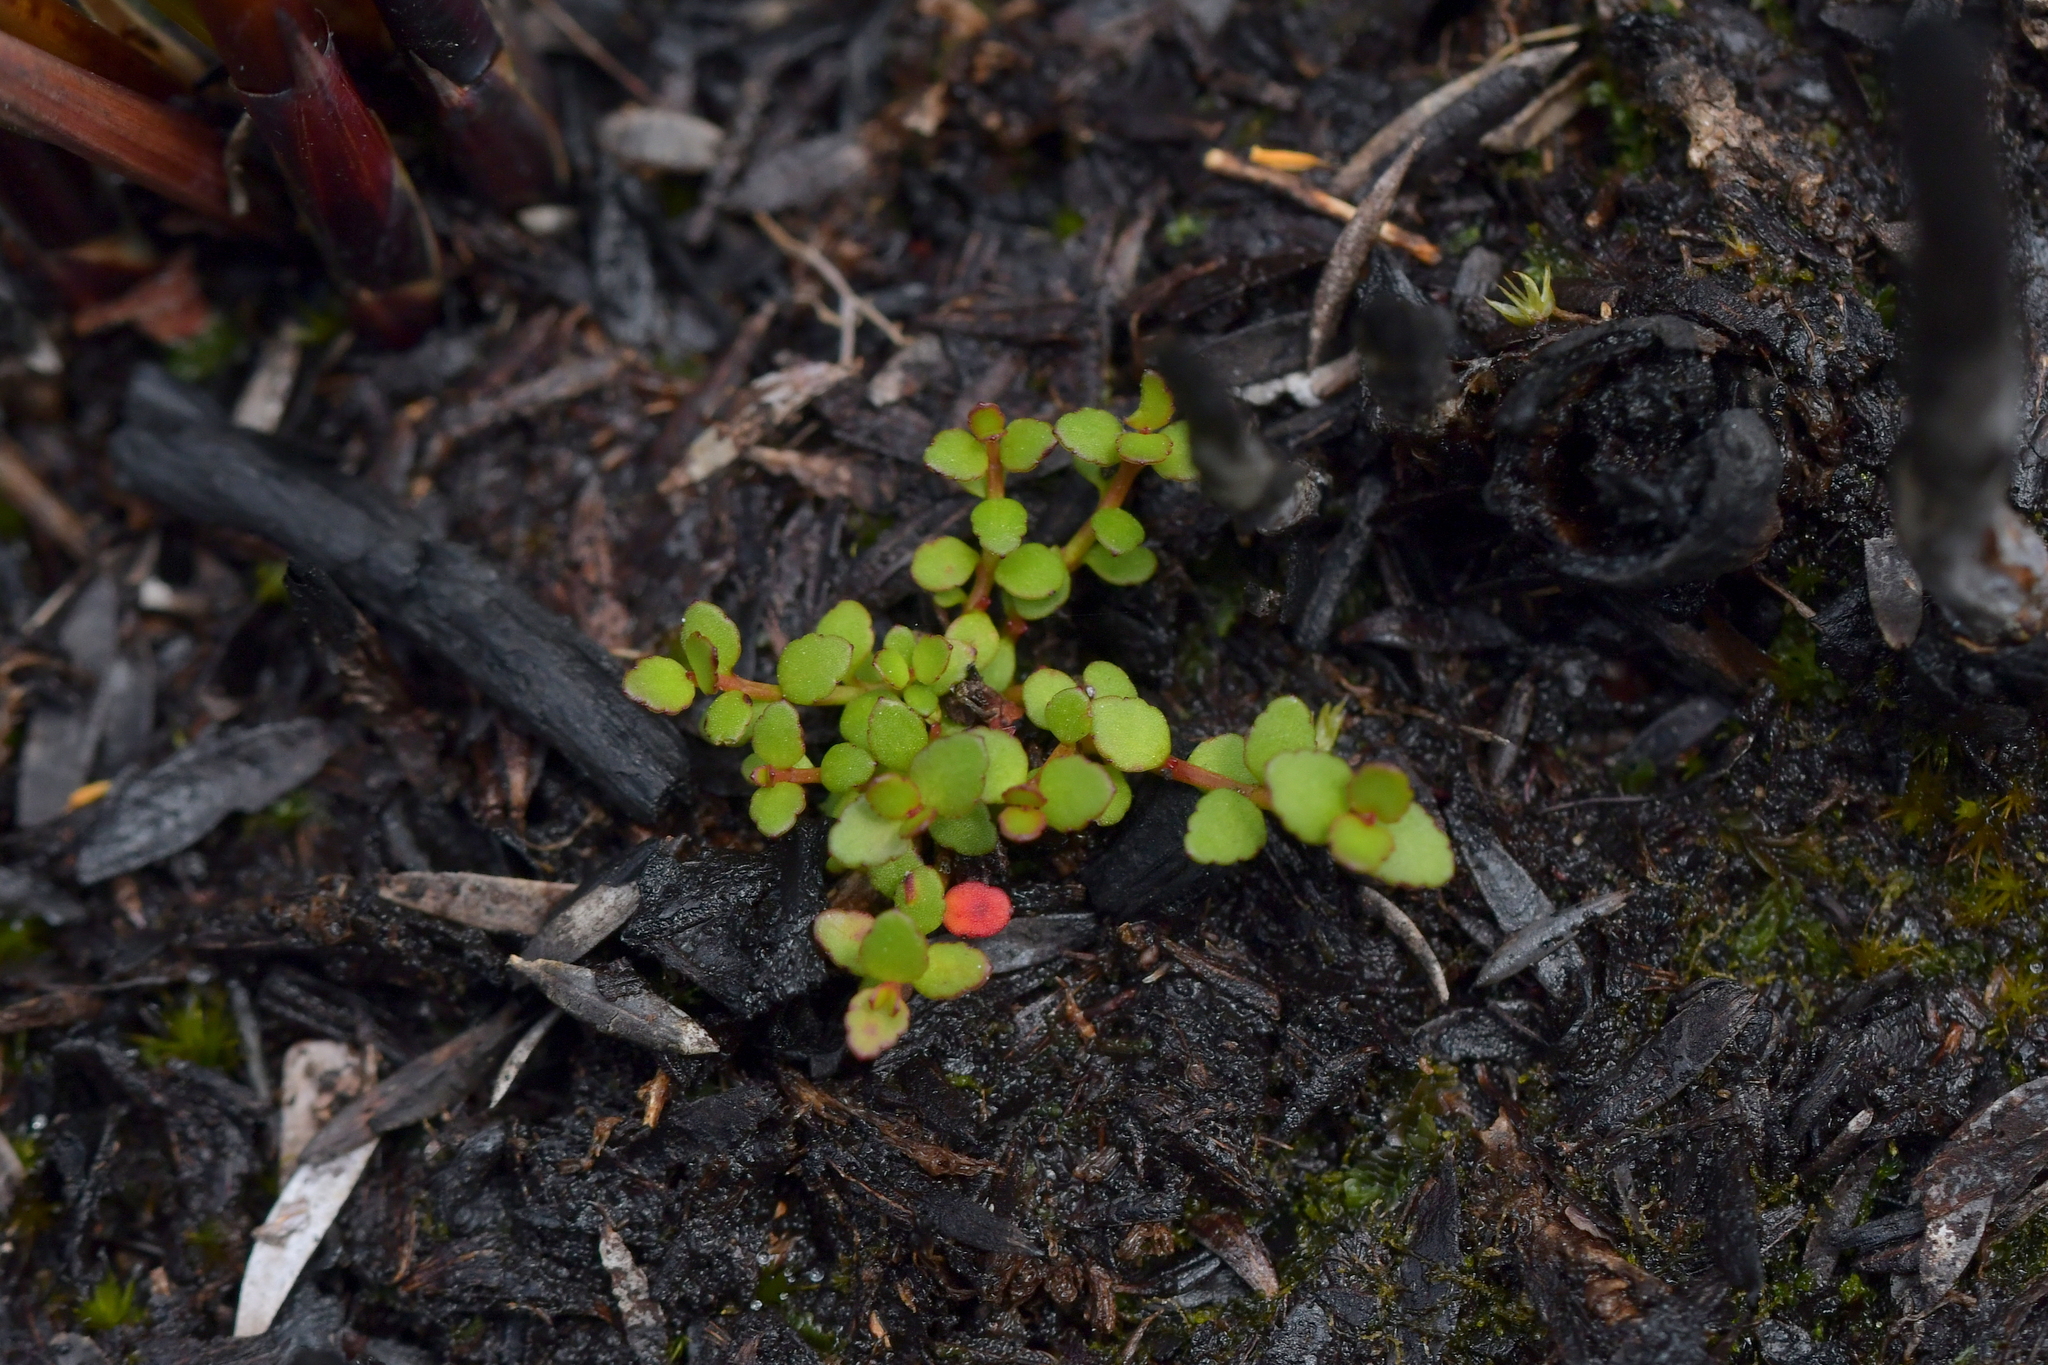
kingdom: Plantae
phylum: Tracheophyta
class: Magnoliopsida
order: Saxifragales
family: Haloragaceae
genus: Gonocarpus
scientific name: Gonocarpus micranthus
